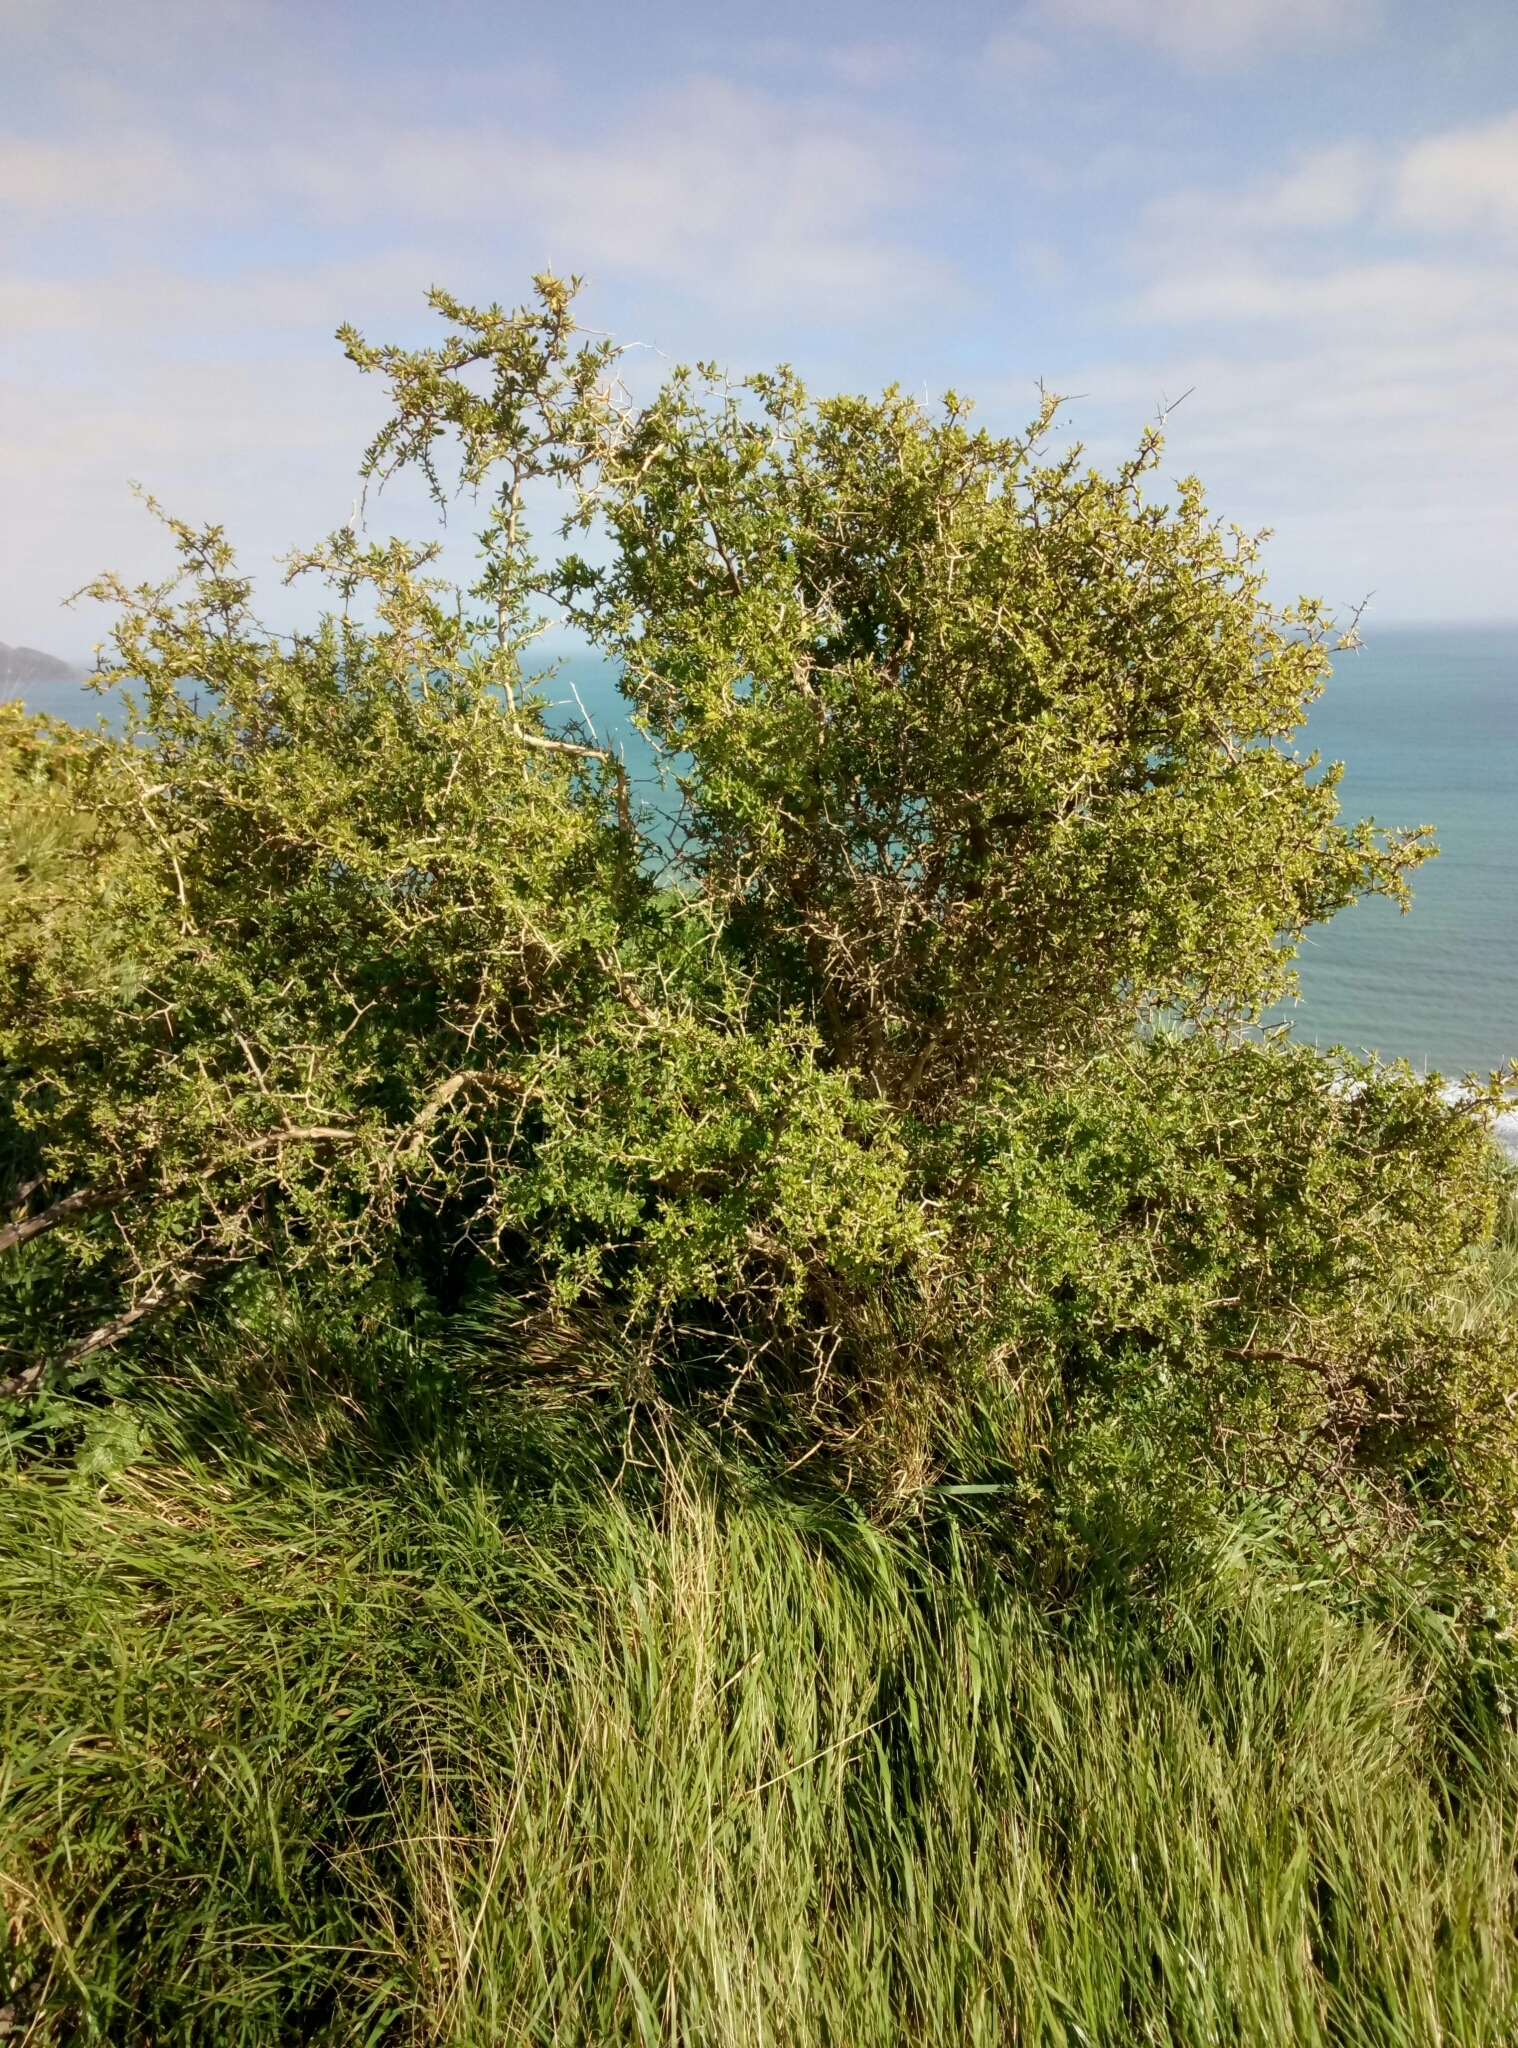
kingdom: Plantae
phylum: Tracheophyta
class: Magnoliopsida
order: Solanales
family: Solanaceae
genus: Lycium
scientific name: Lycium ferocissimum
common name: African boxthorn
